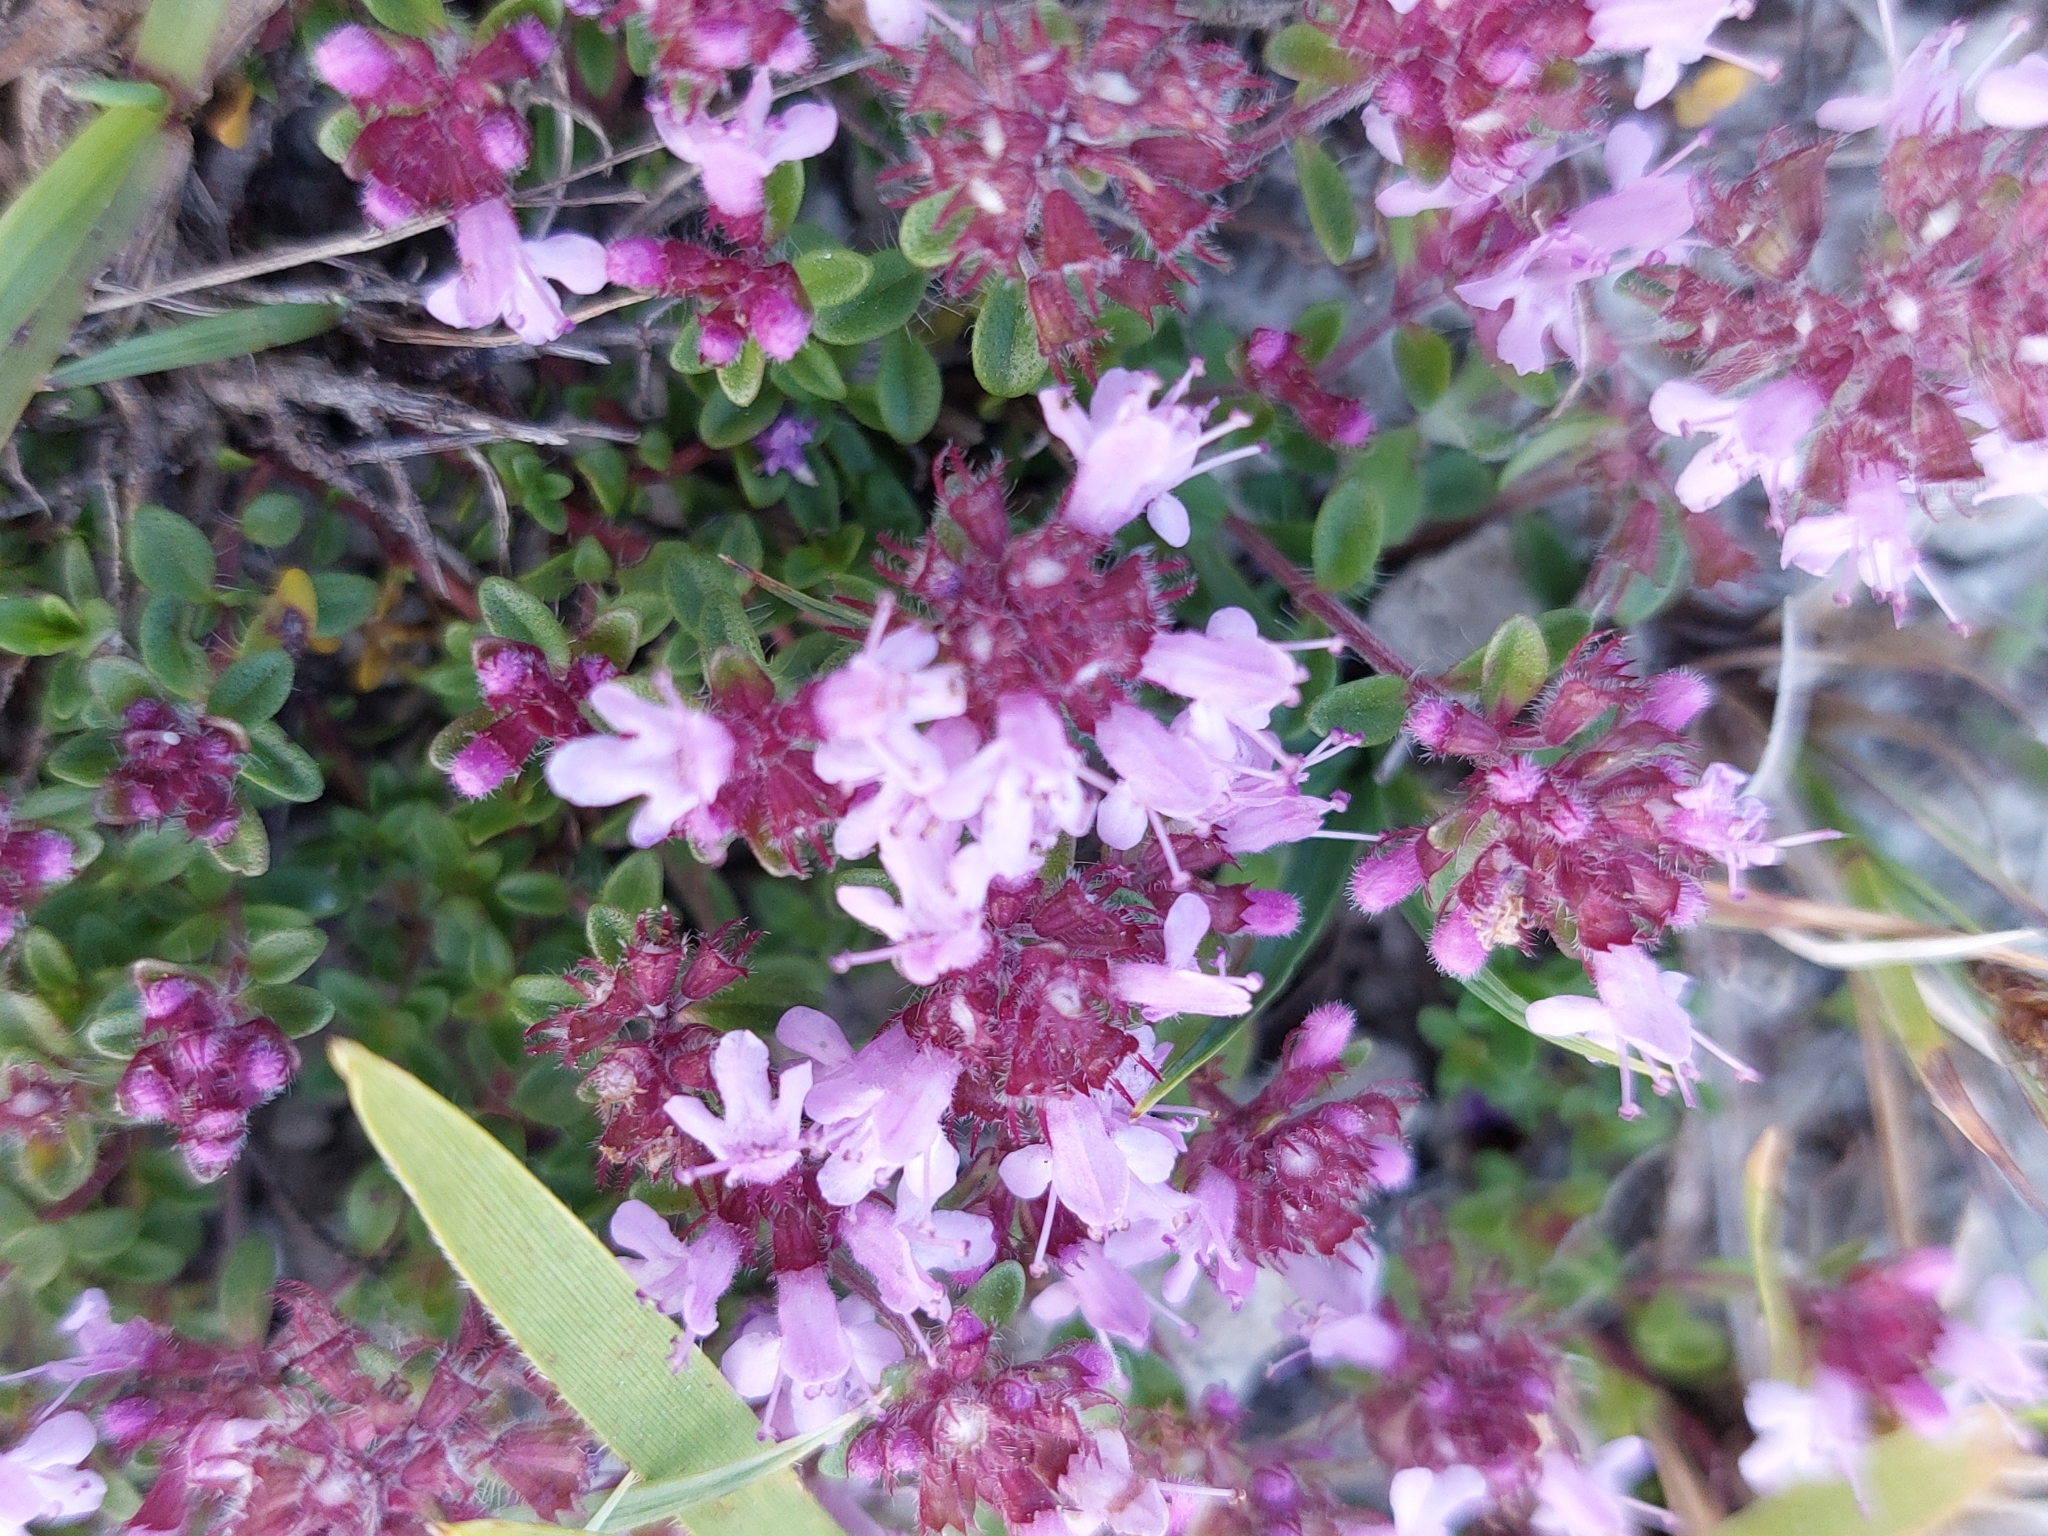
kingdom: Plantae
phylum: Tracheophyta
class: Magnoliopsida
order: Lamiales
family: Lamiaceae
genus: Thymus
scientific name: Thymus praecox
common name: Wild thyme
